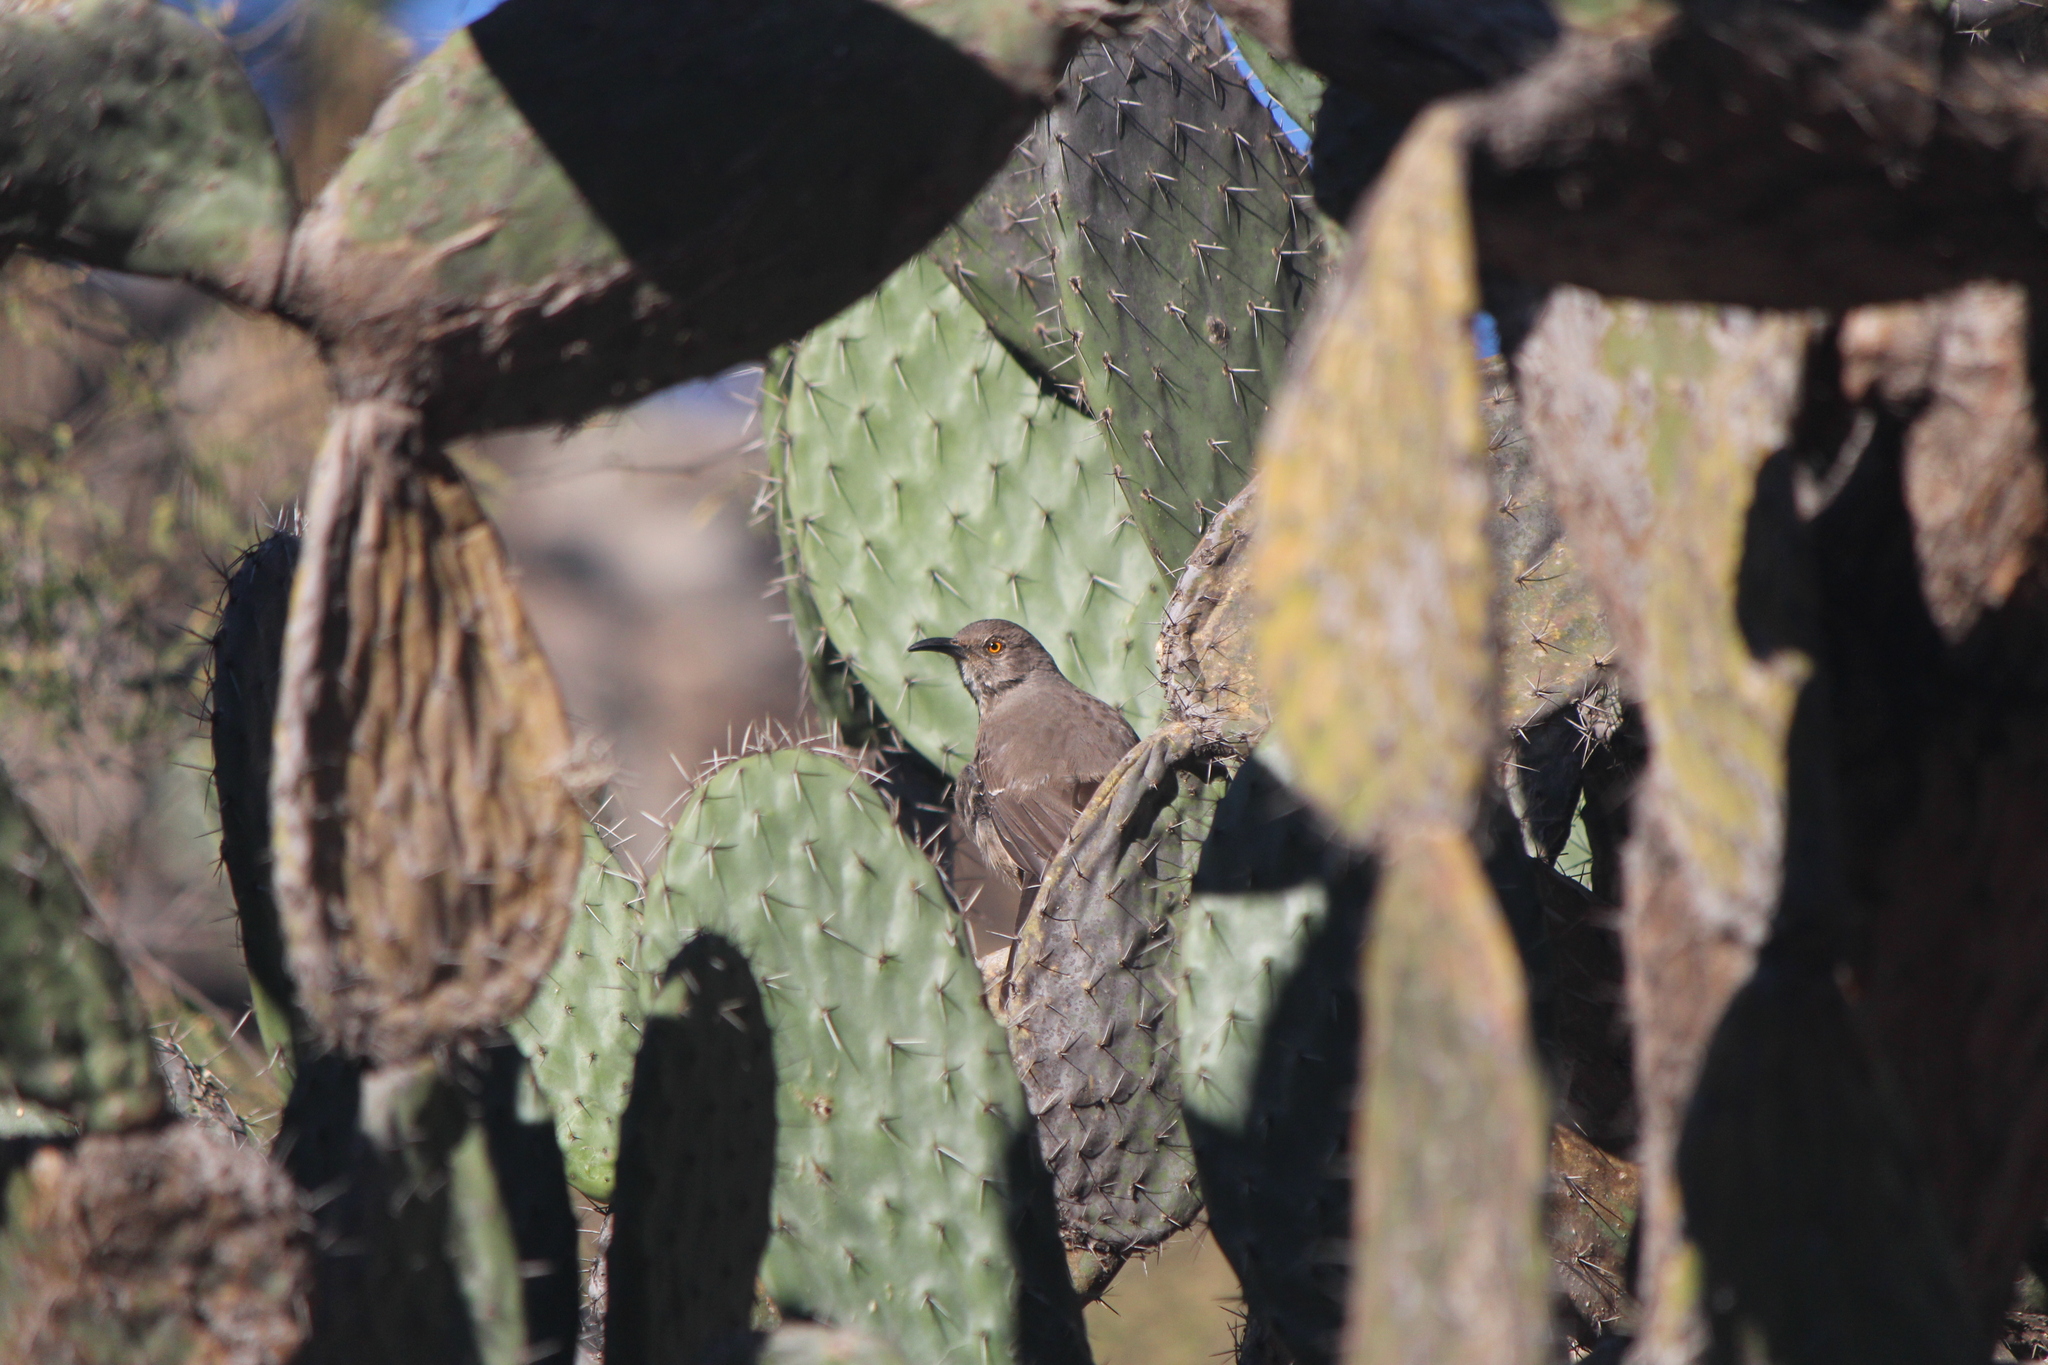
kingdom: Animalia
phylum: Chordata
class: Aves
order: Passeriformes
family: Mimidae
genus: Toxostoma
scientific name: Toxostoma curvirostre
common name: Curve-billed thrasher
